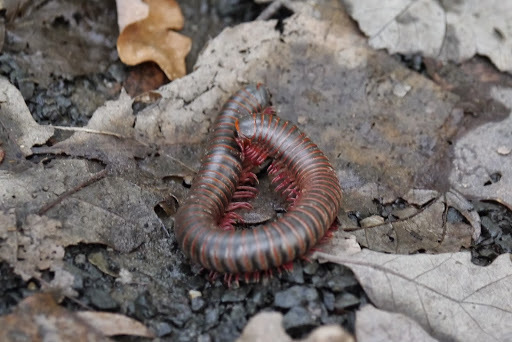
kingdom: Animalia
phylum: Arthropoda
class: Diplopoda
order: Spirobolida
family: Spirobolidae
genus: Narceus
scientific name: Narceus
